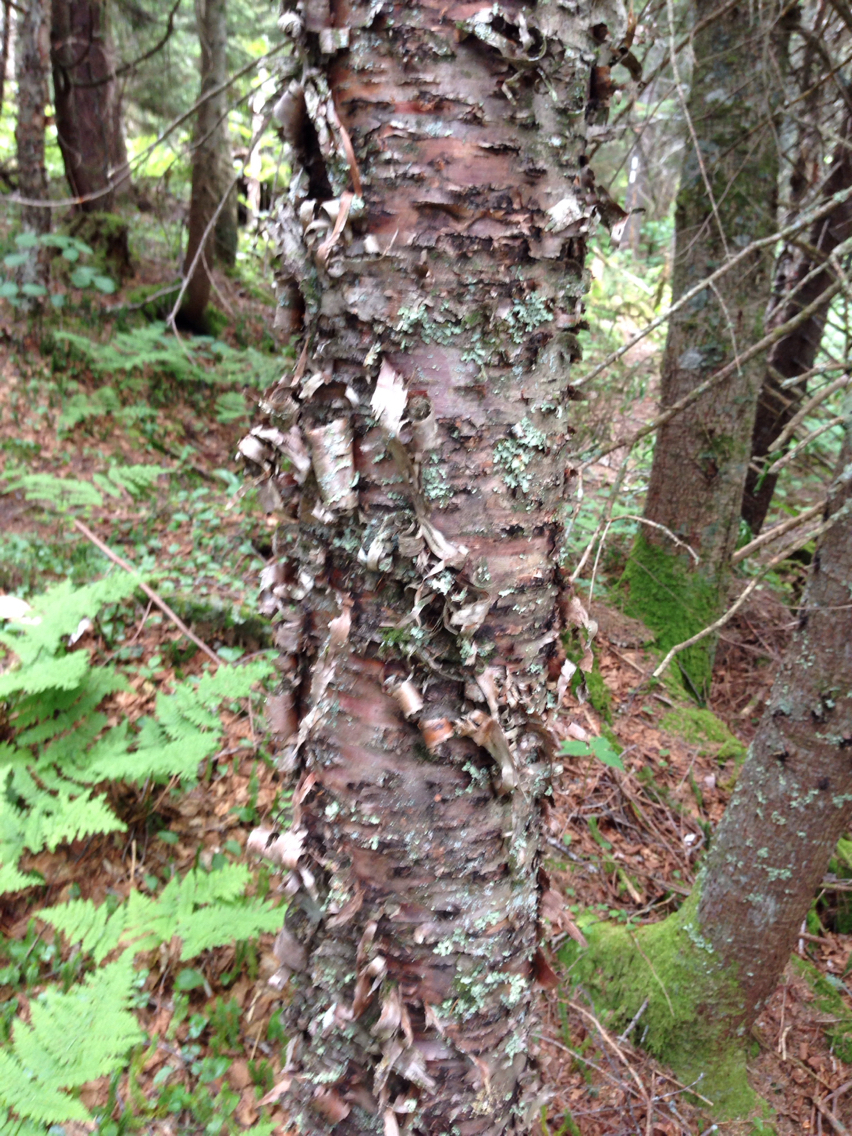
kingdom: Plantae
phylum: Tracheophyta
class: Magnoliopsida
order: Fagales
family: Betulaceae
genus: Betula
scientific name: Betula alleghaniensis
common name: Yellow birch
